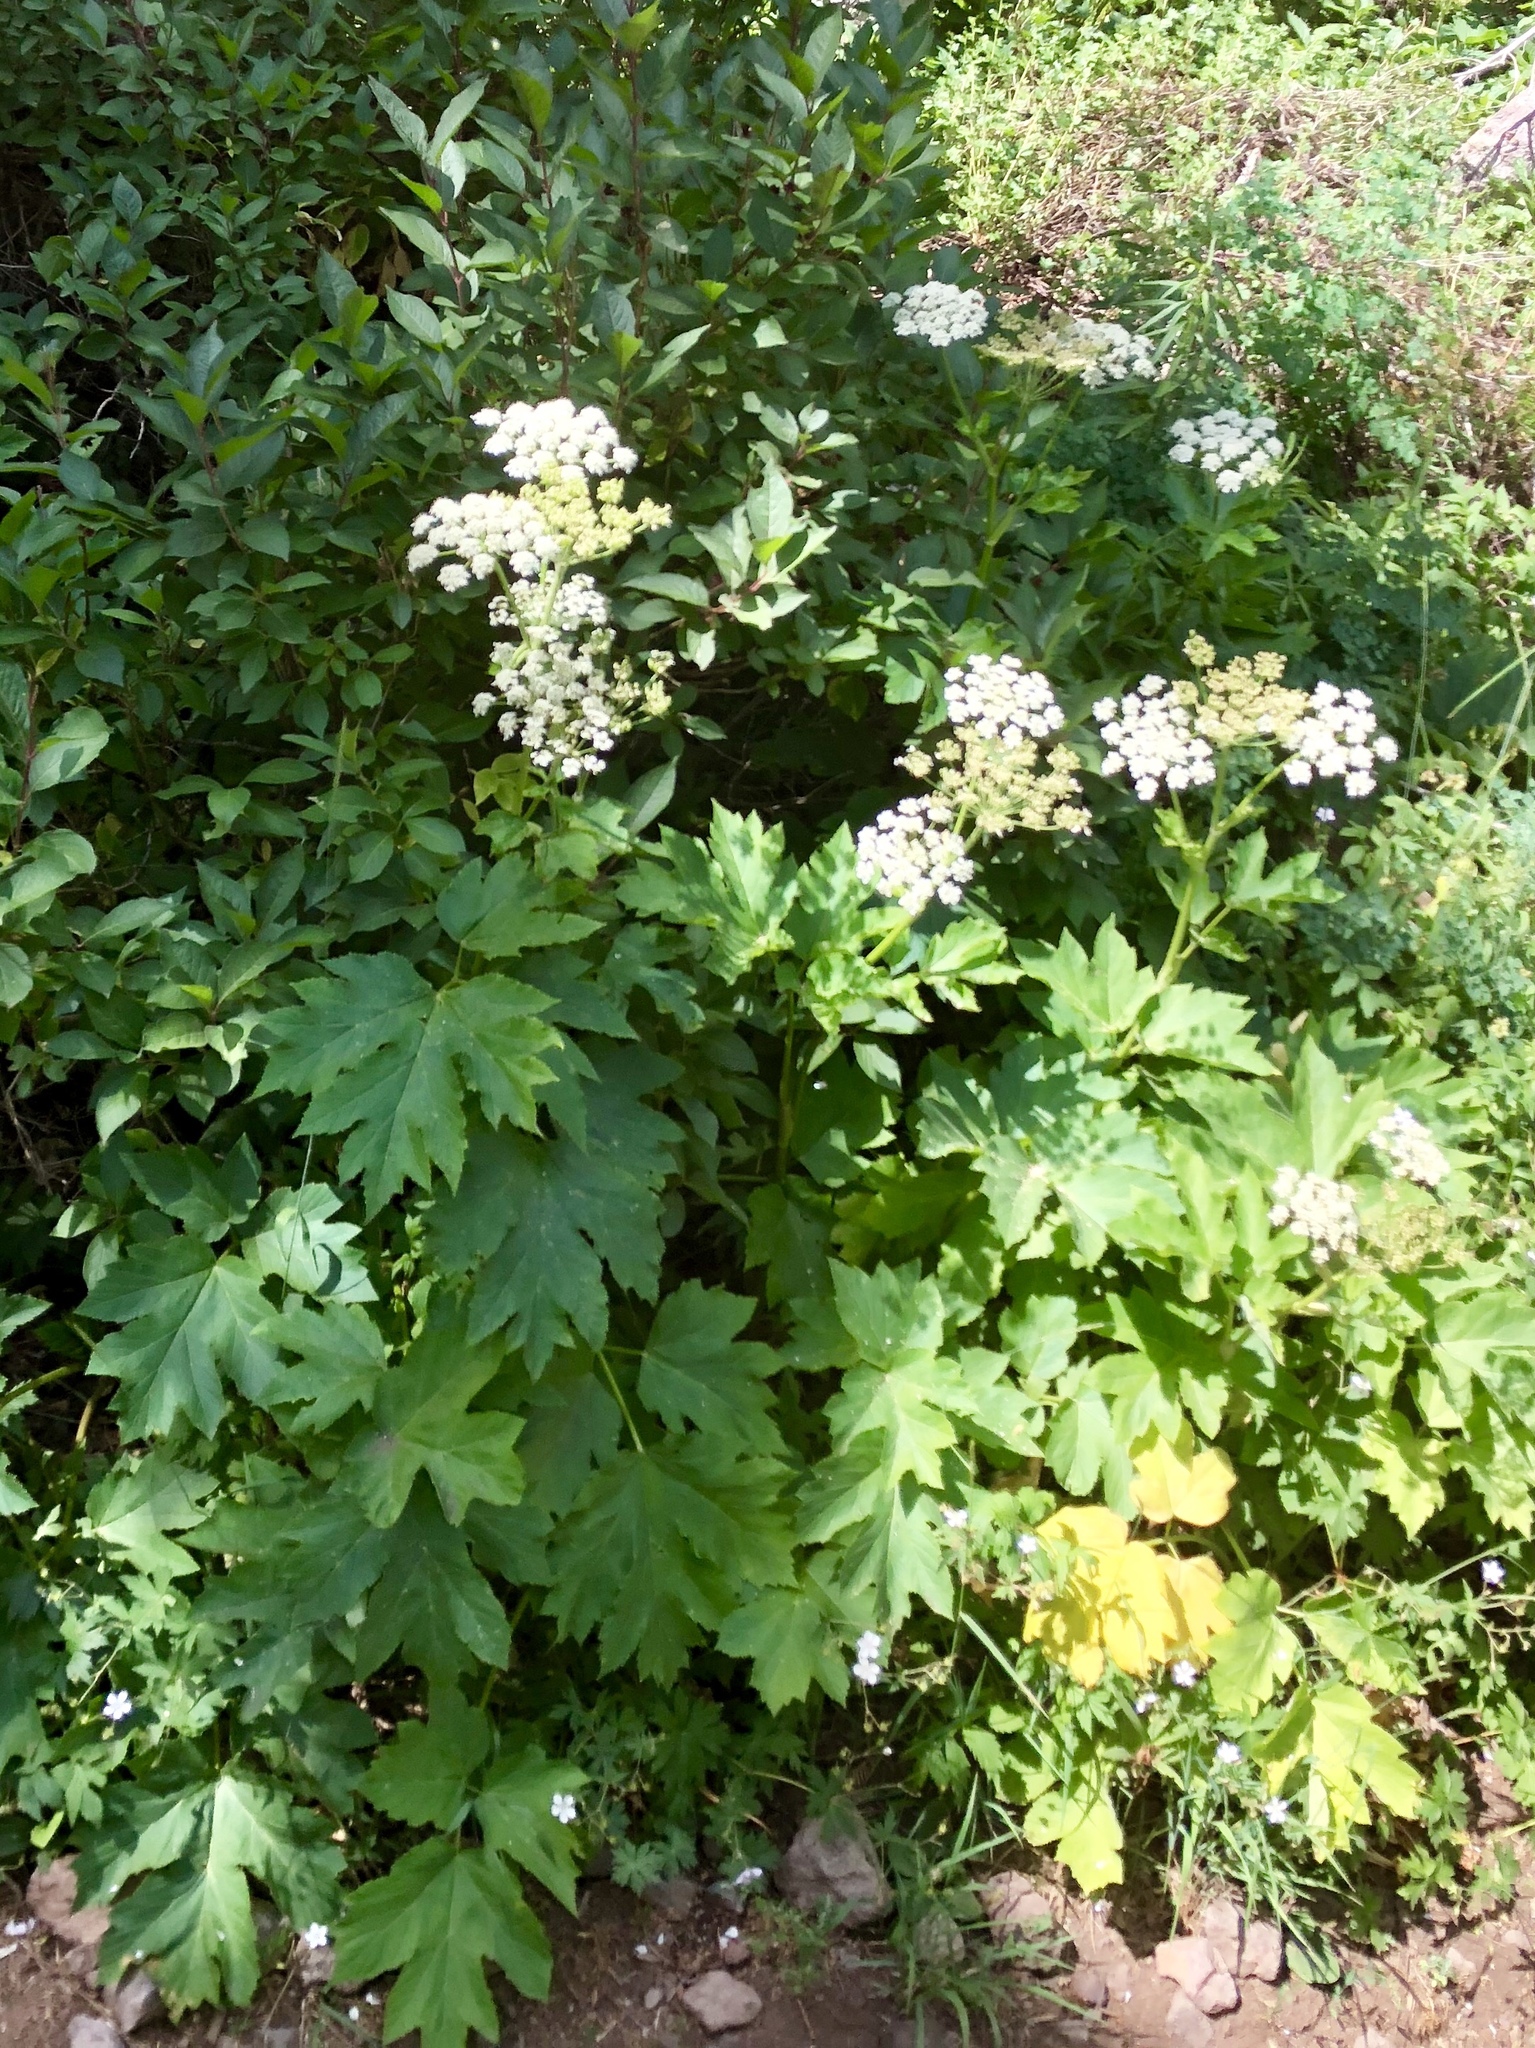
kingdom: Plantae
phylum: Tracheophyta
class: Magnoliopsida
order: Apiales
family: Apiaceae
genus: Heracleum
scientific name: Heracleum maximum
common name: American cow parsnip
